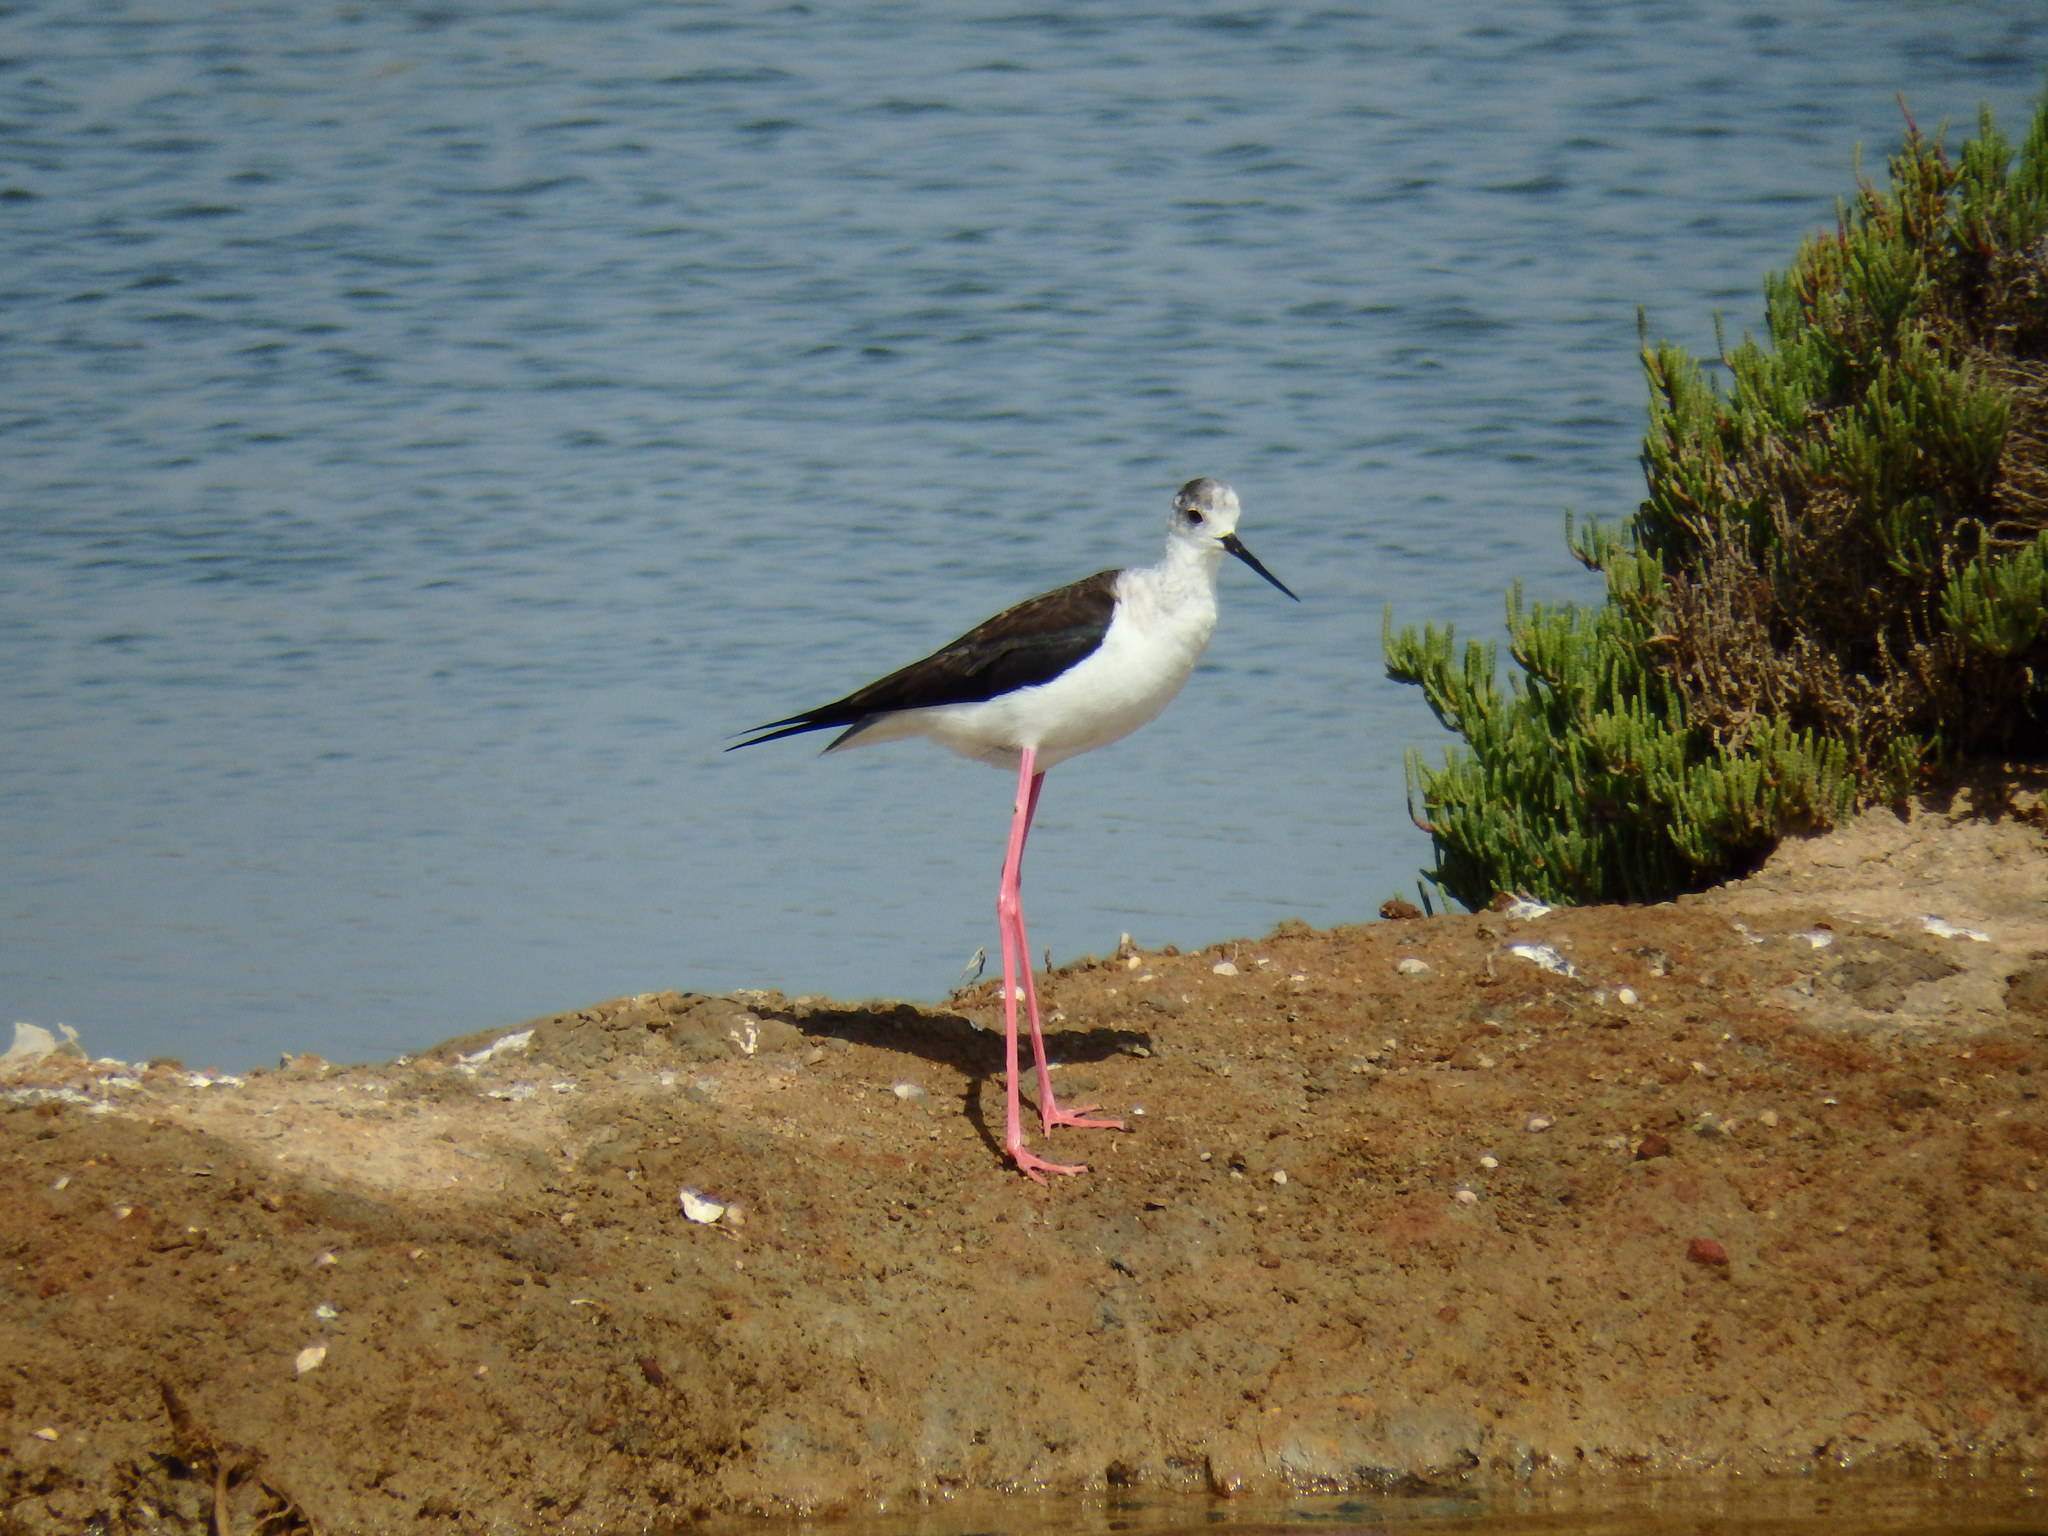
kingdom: Animalia
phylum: Chordata
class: Aves
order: Charadriiformes
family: Recurvirostridae
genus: Himantopus
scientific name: Himantopus himantopus
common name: Black-winged stilt
